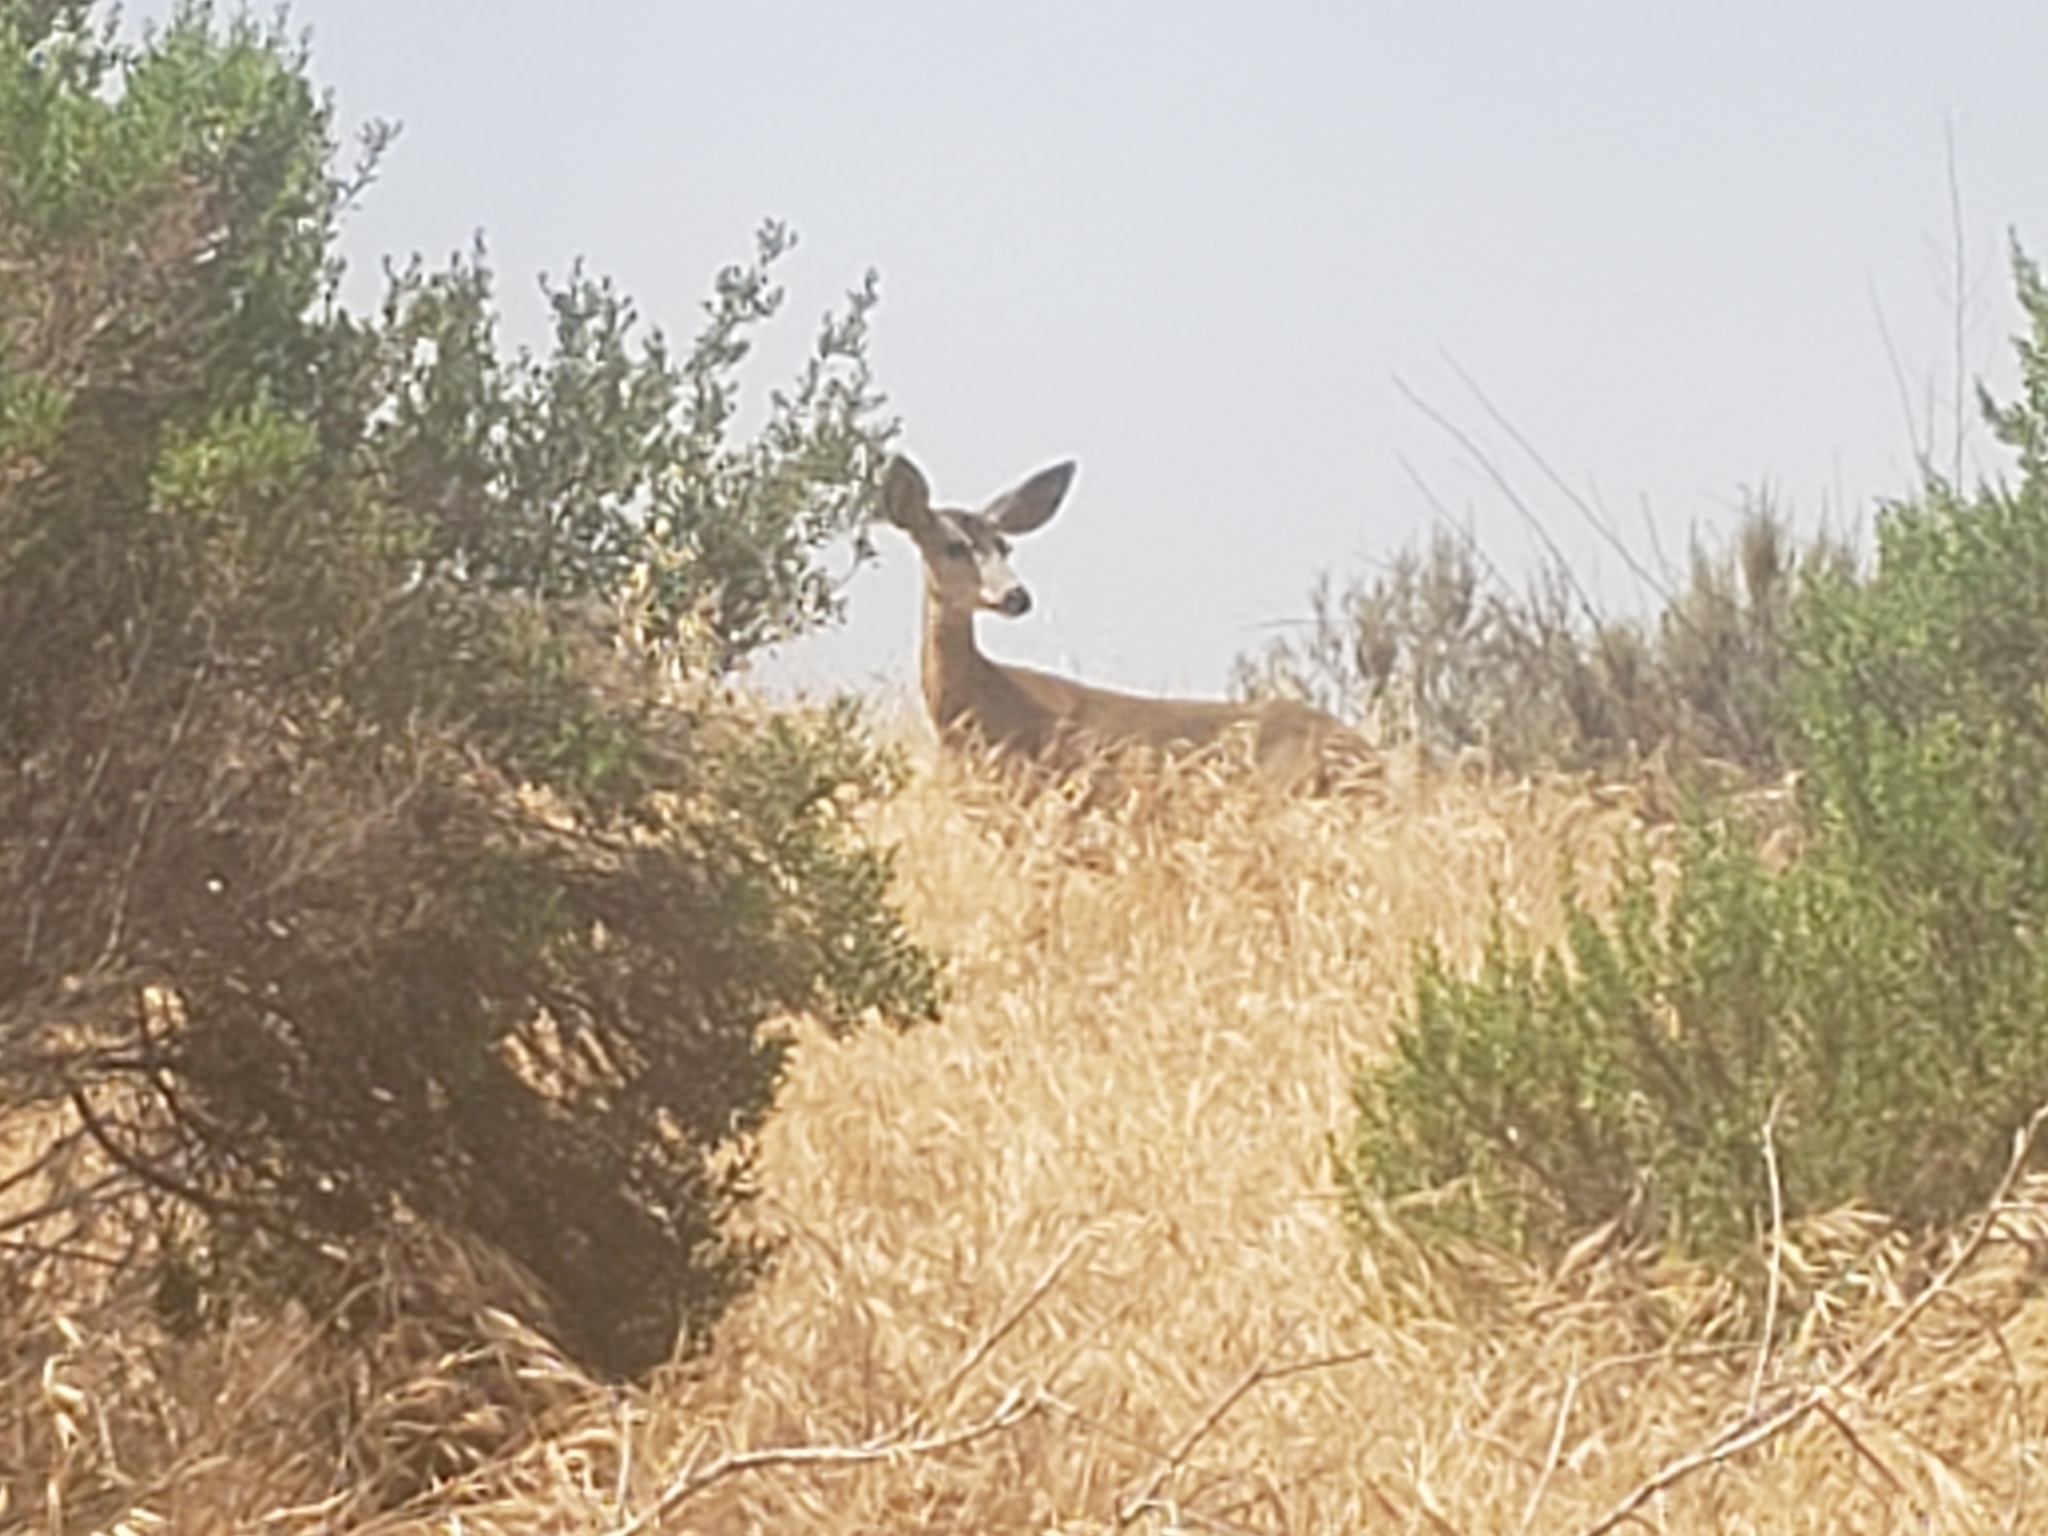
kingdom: Animalia
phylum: Chordata
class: Mammalia
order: Artiodactyla
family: Cervidae
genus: Odocoileus
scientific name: Odocoileus hemionus
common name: Mule deer
